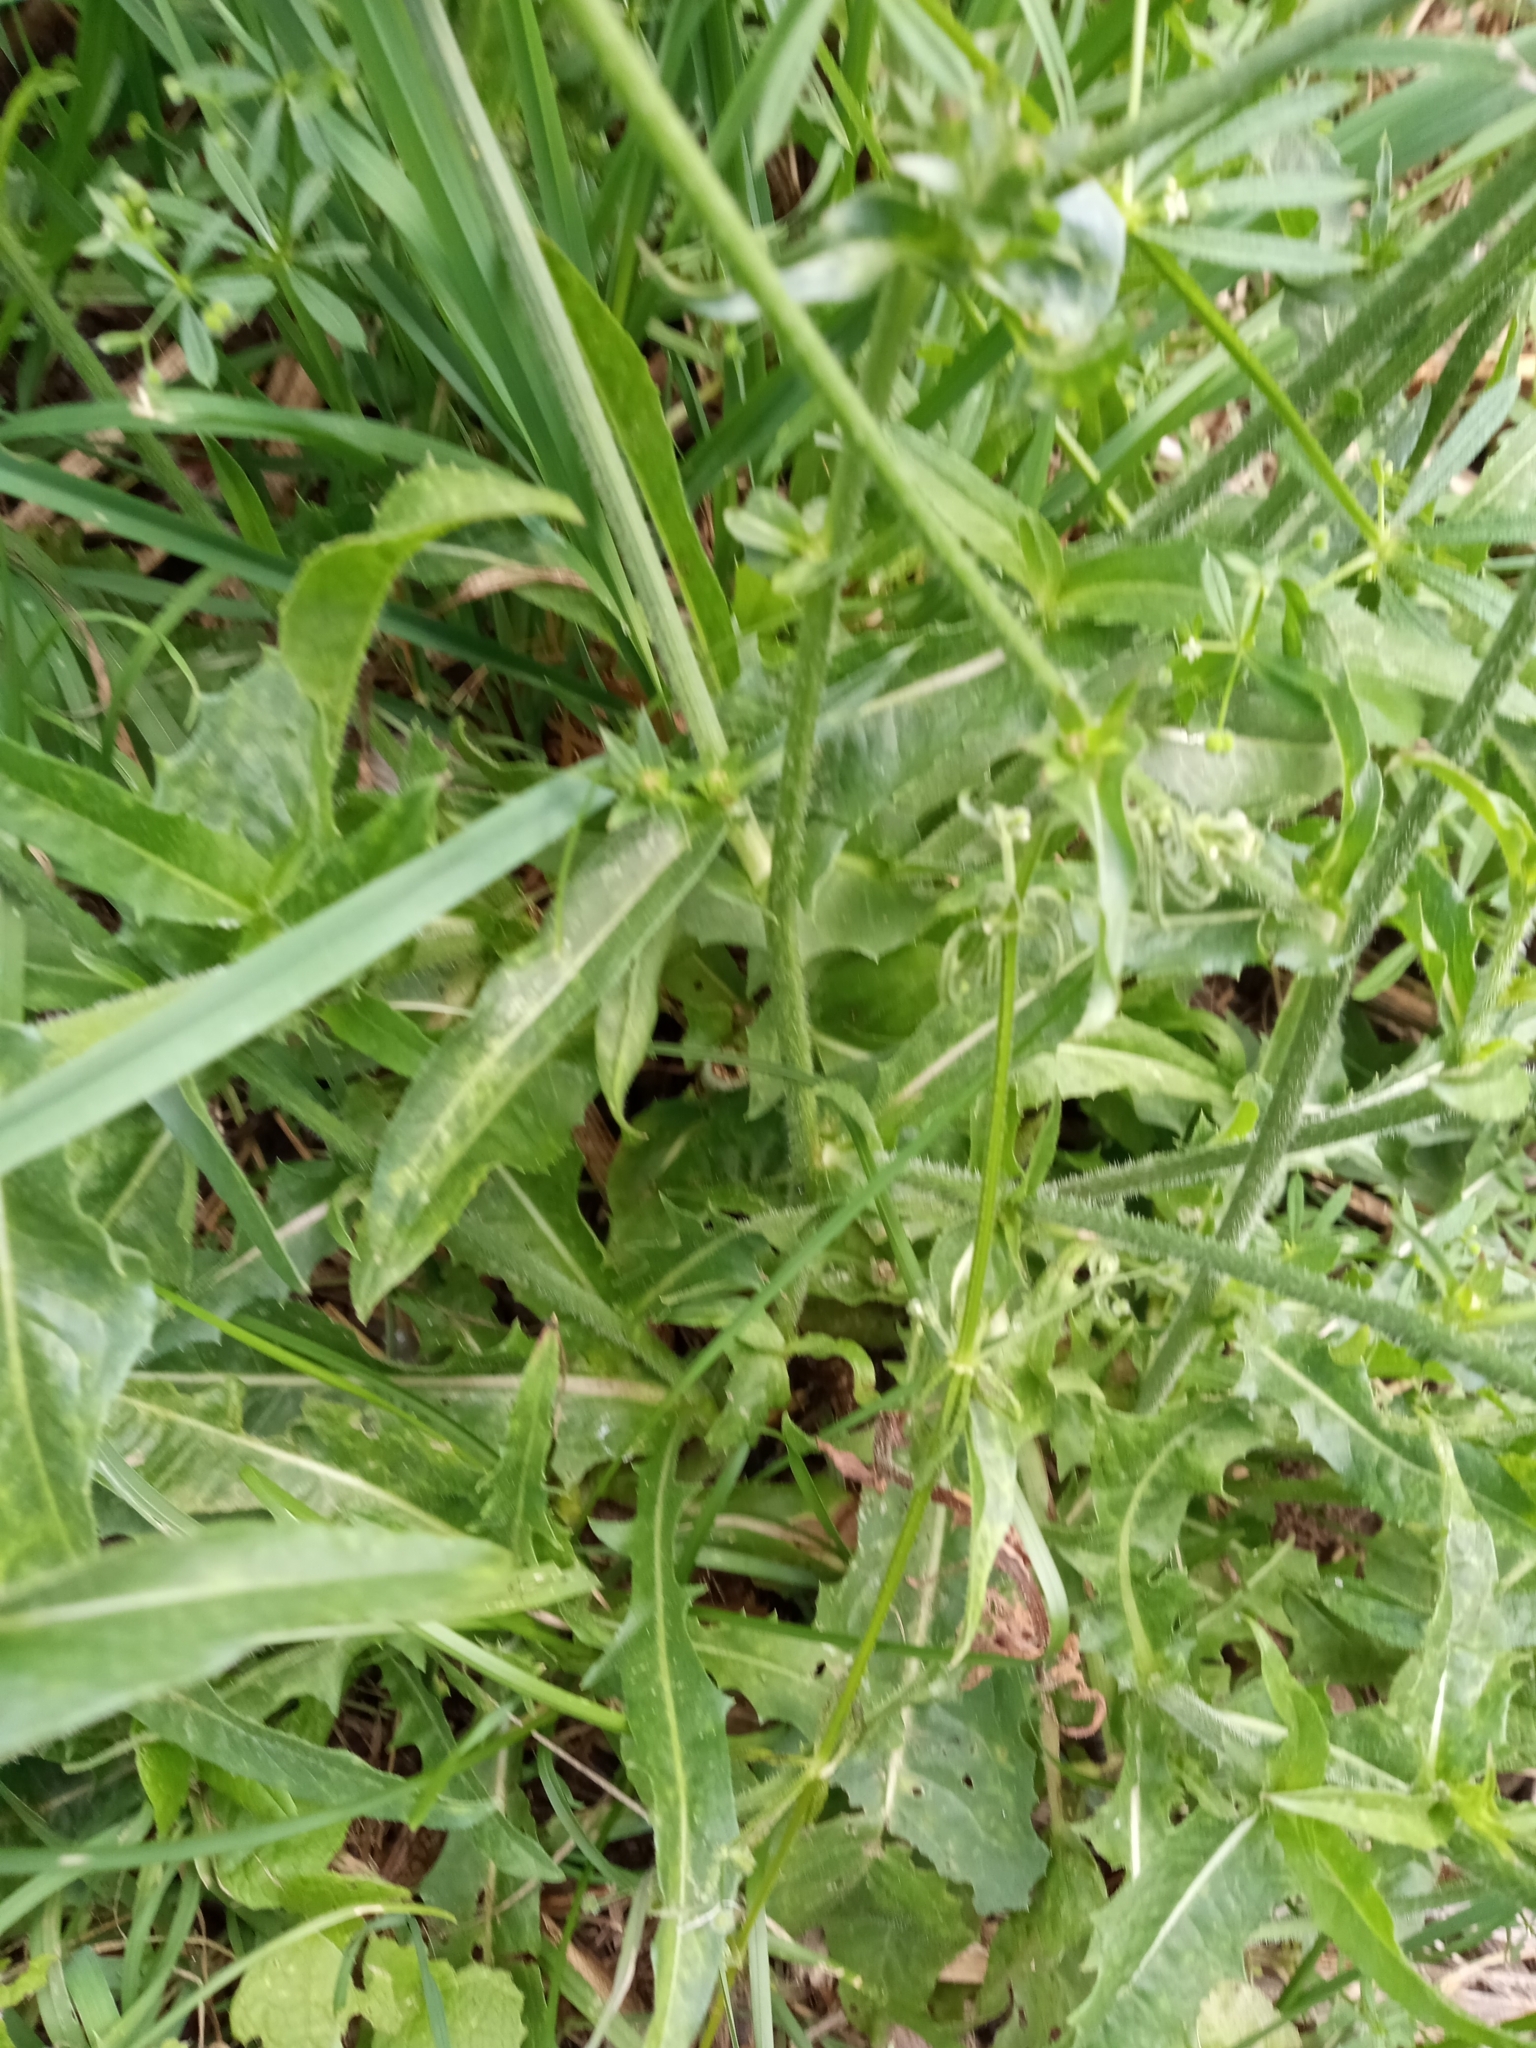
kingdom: Plantae
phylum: Tracheophyta
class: Magnoliopsida
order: Asterales
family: Asteraceae
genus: Cichorium
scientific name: Cichorium intybus
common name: Chicory
